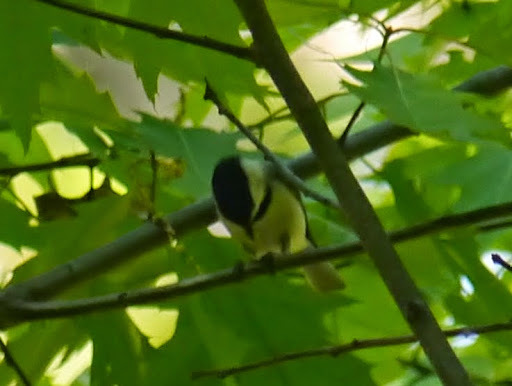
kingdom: Animalia
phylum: Chordata
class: Aves
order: Passeriformes
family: Paridae
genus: Poecile
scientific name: Poecile carolinensis
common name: Carolina chickadee
